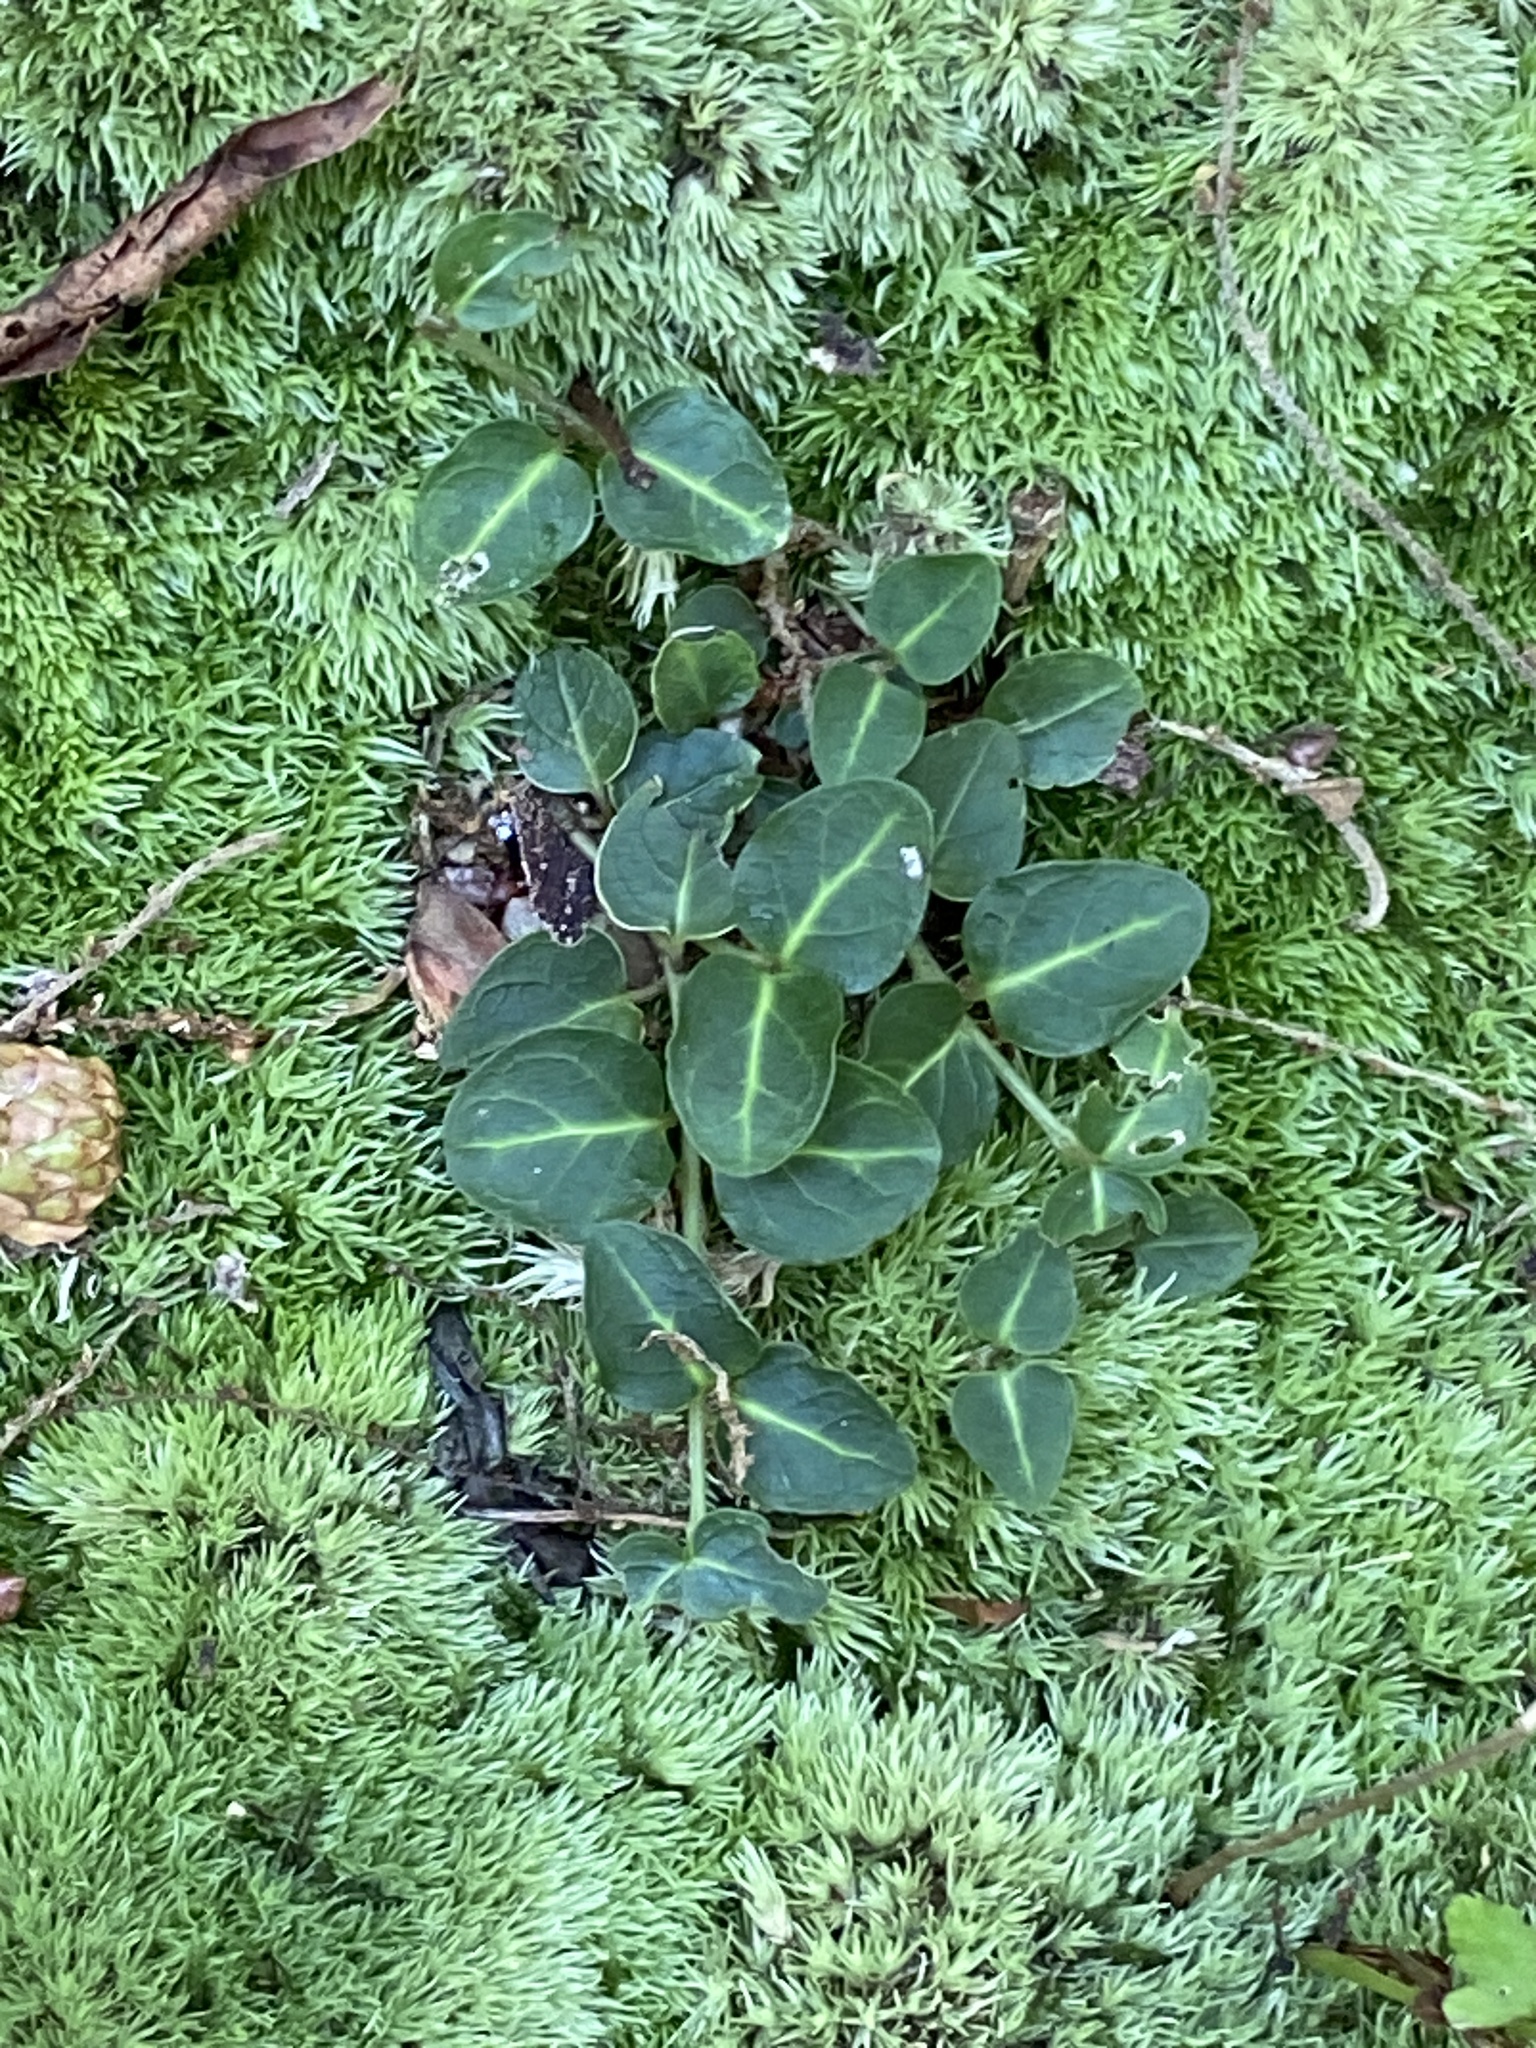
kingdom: Plantae
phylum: Tracheophyta
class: Magnoliopsida
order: Gentianales
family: Rubiaceae
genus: Mitchella
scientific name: Mitchella repens
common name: Partridge-berry
